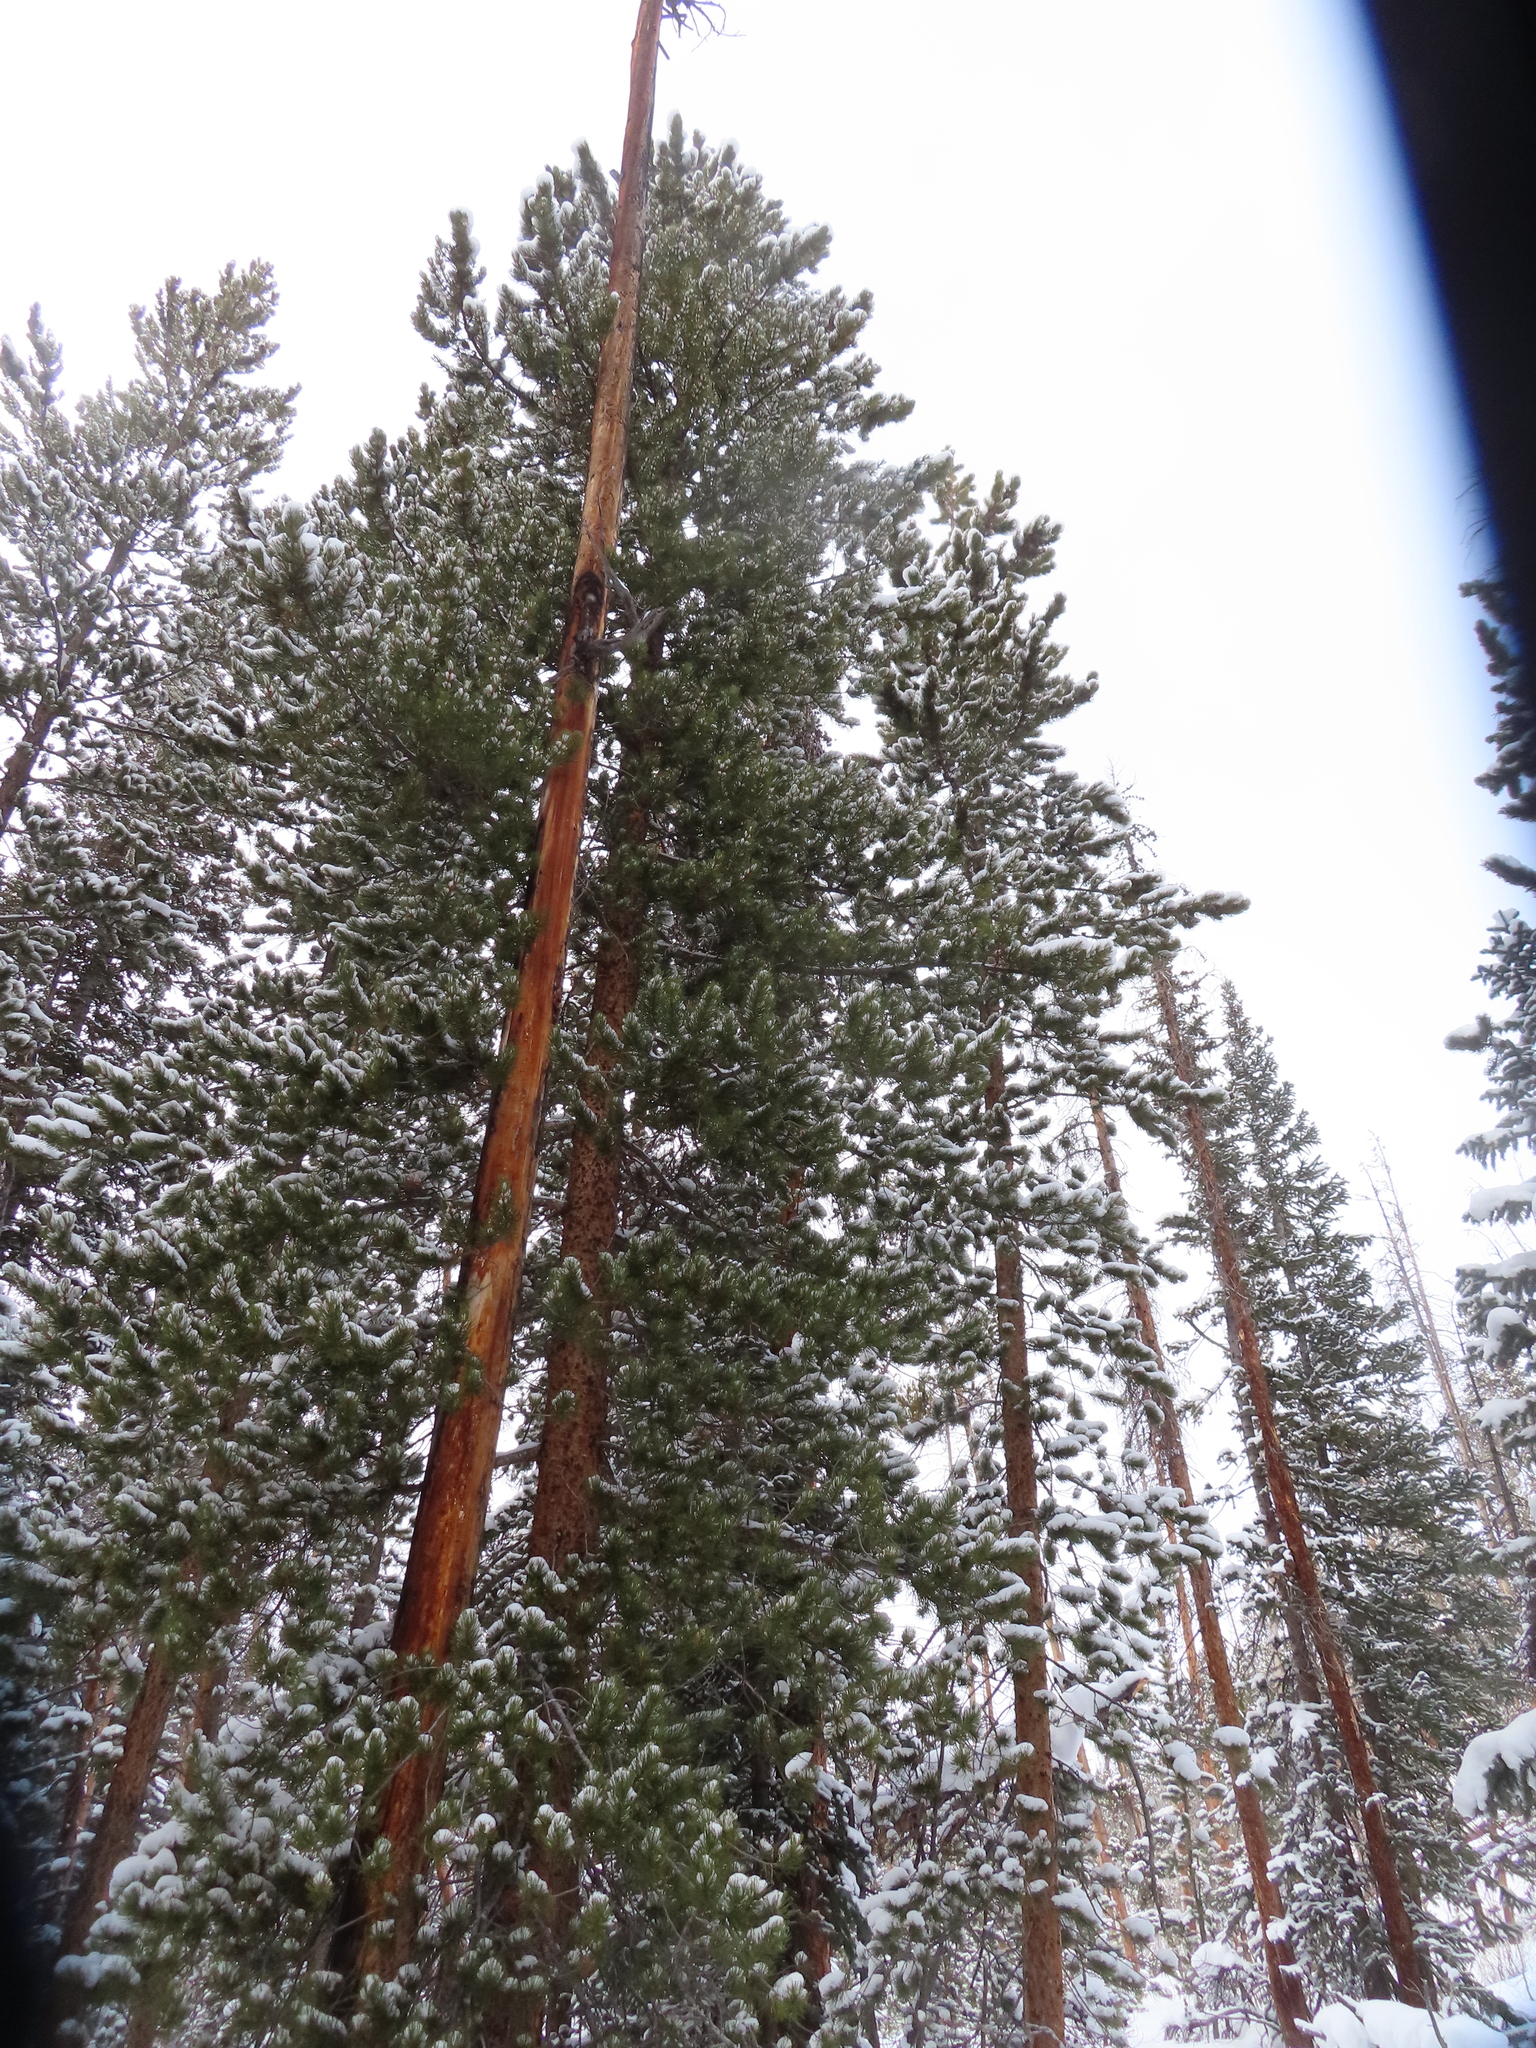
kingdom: Plantae
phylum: Tracheophyta
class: Pinopsida
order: Pinales
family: Pinaceae
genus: Pinus
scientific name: Pinus contorta
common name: Lodgepole pine
